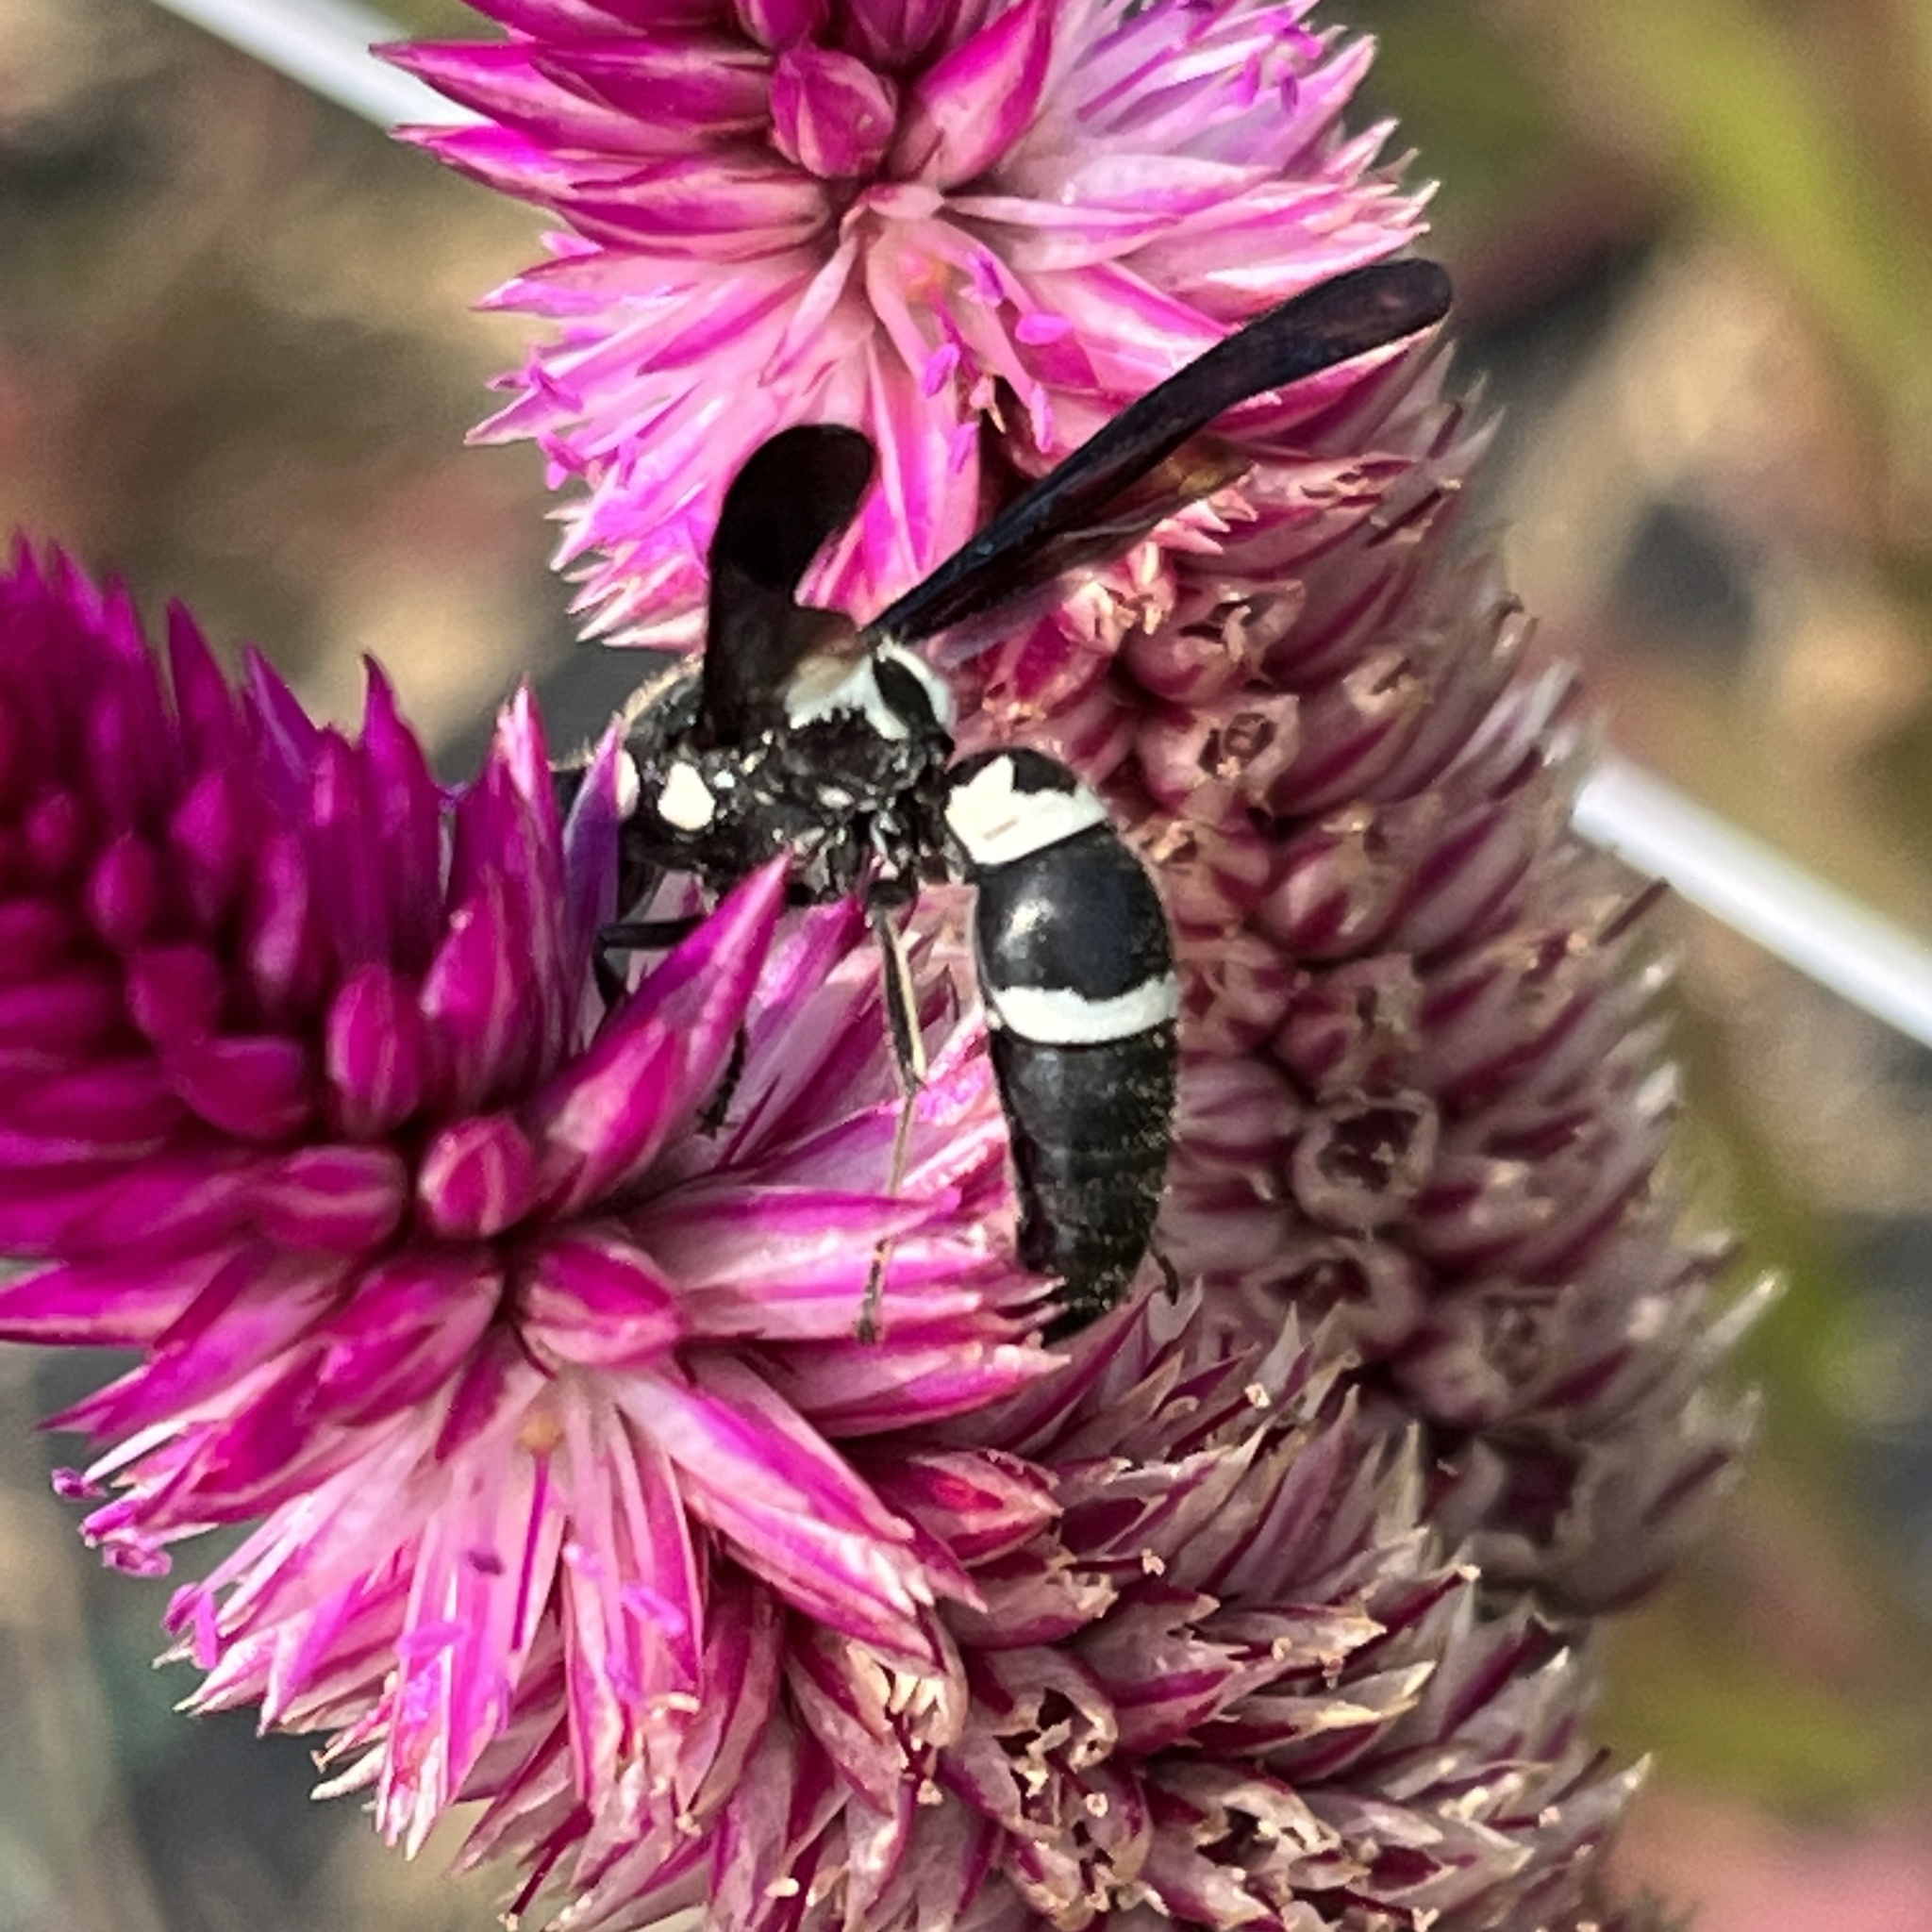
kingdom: Animalia
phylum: Arthropoda
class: Insecta
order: Hymenoptera
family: Eumenidae
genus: Pseudodynerus
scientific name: Pseudodynerus quadrisectus
